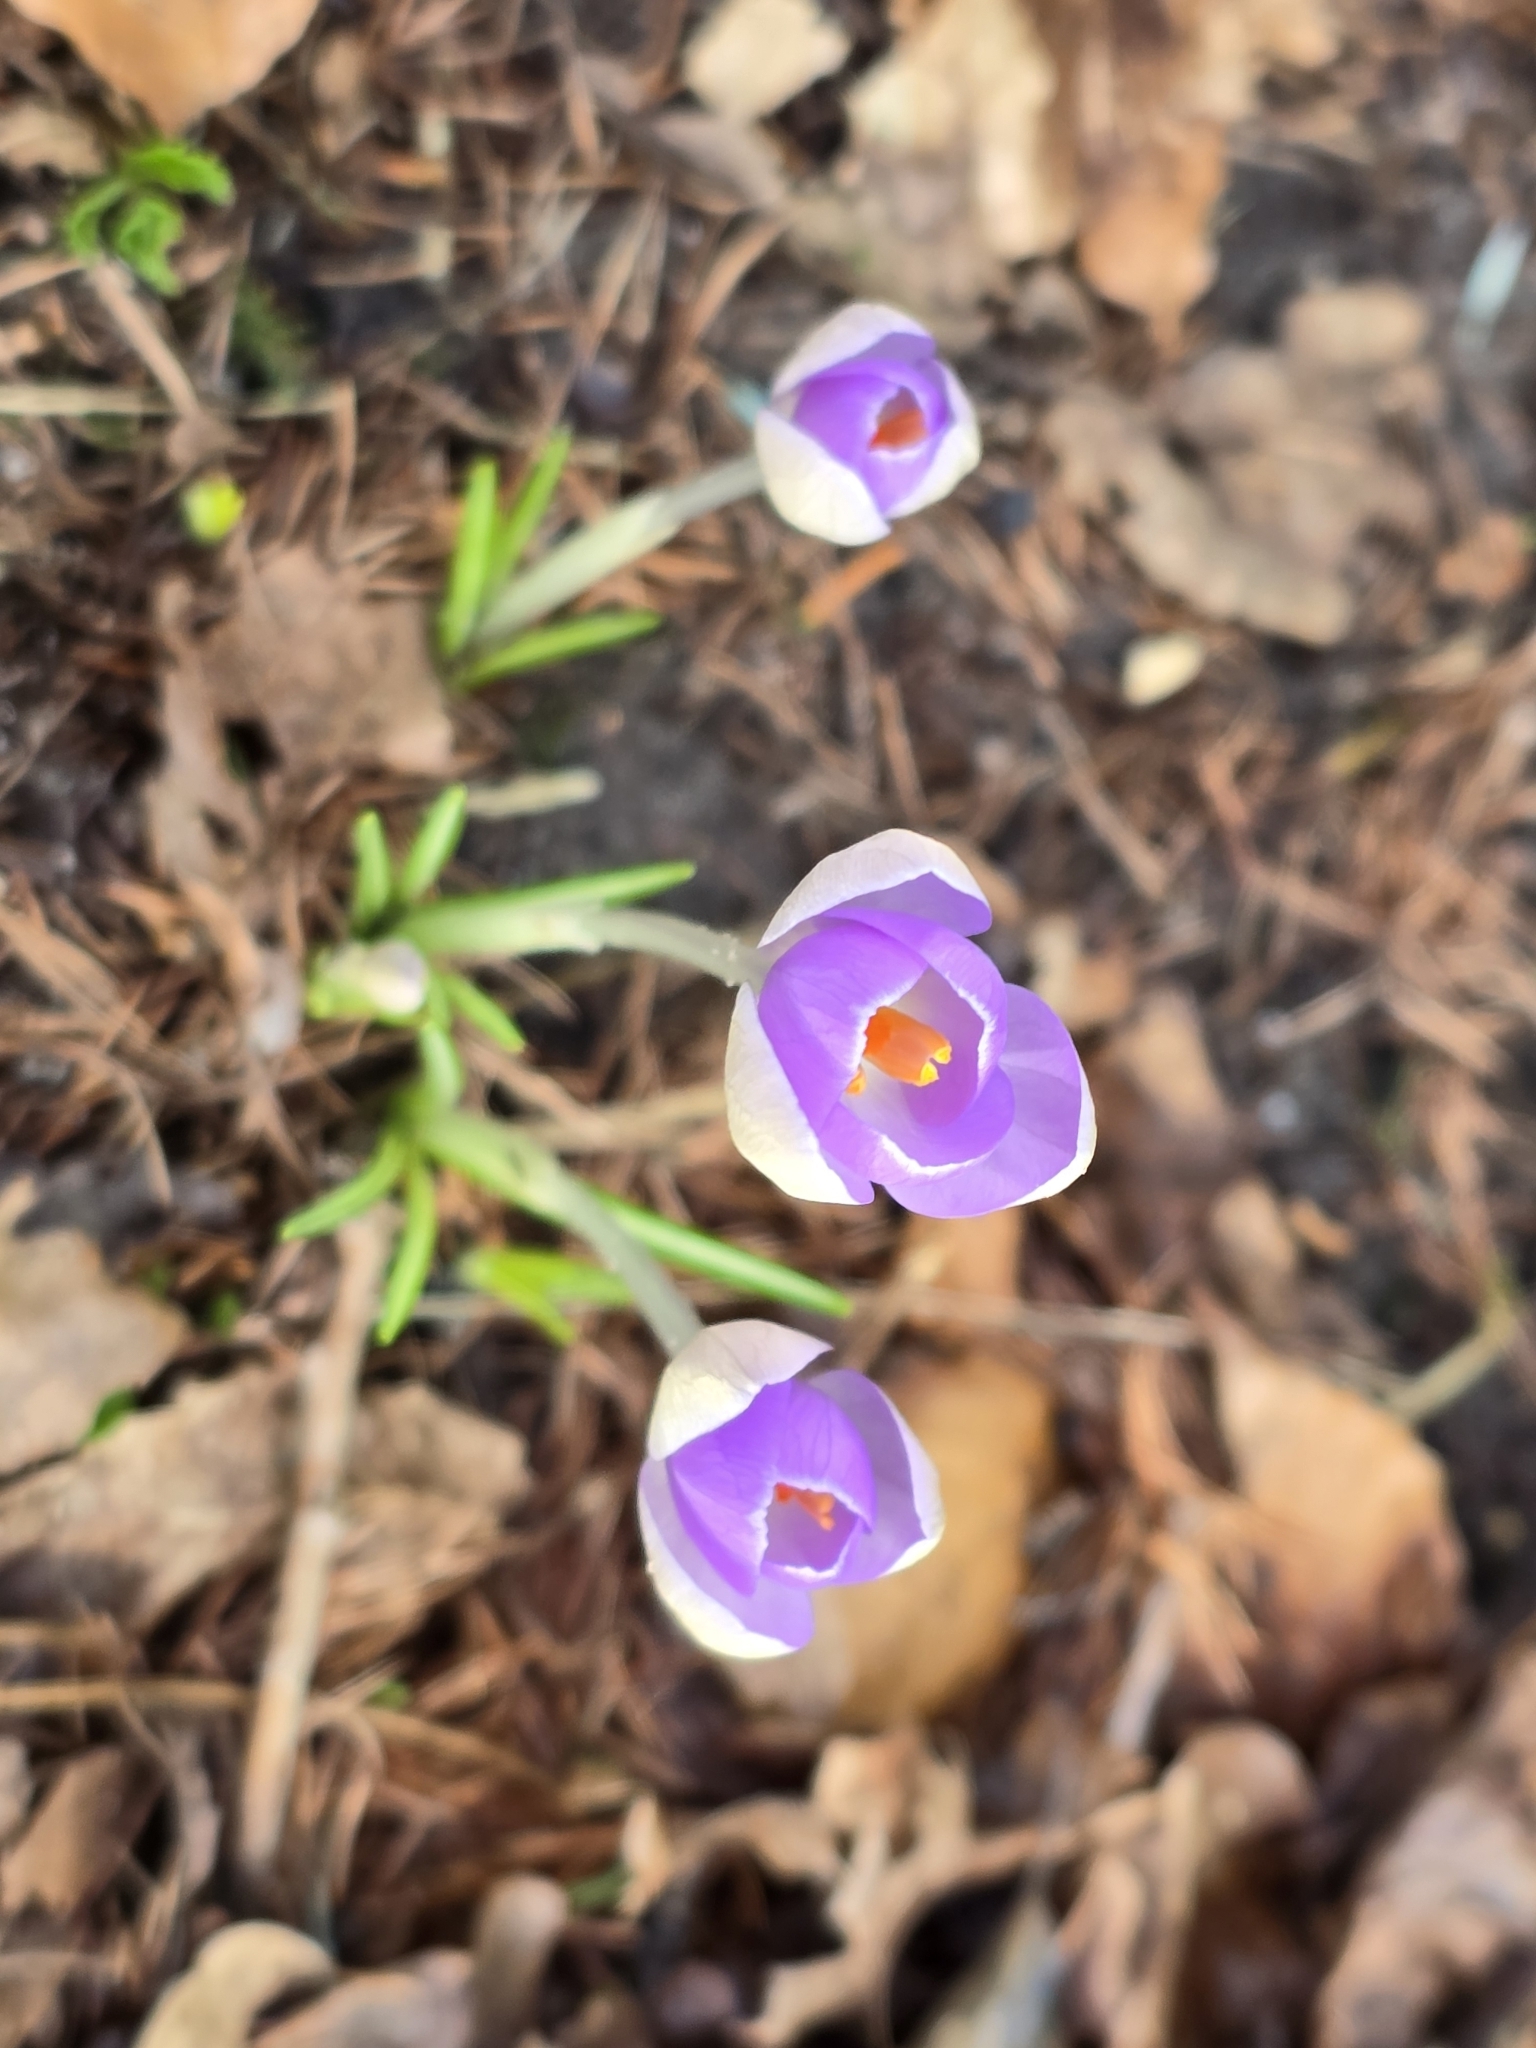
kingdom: Plantae
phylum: Tracheophyta
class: Liliopsida
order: Asparagales
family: Iridaceae
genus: Crocus
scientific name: Crocus tommasinianus
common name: Early crocus
